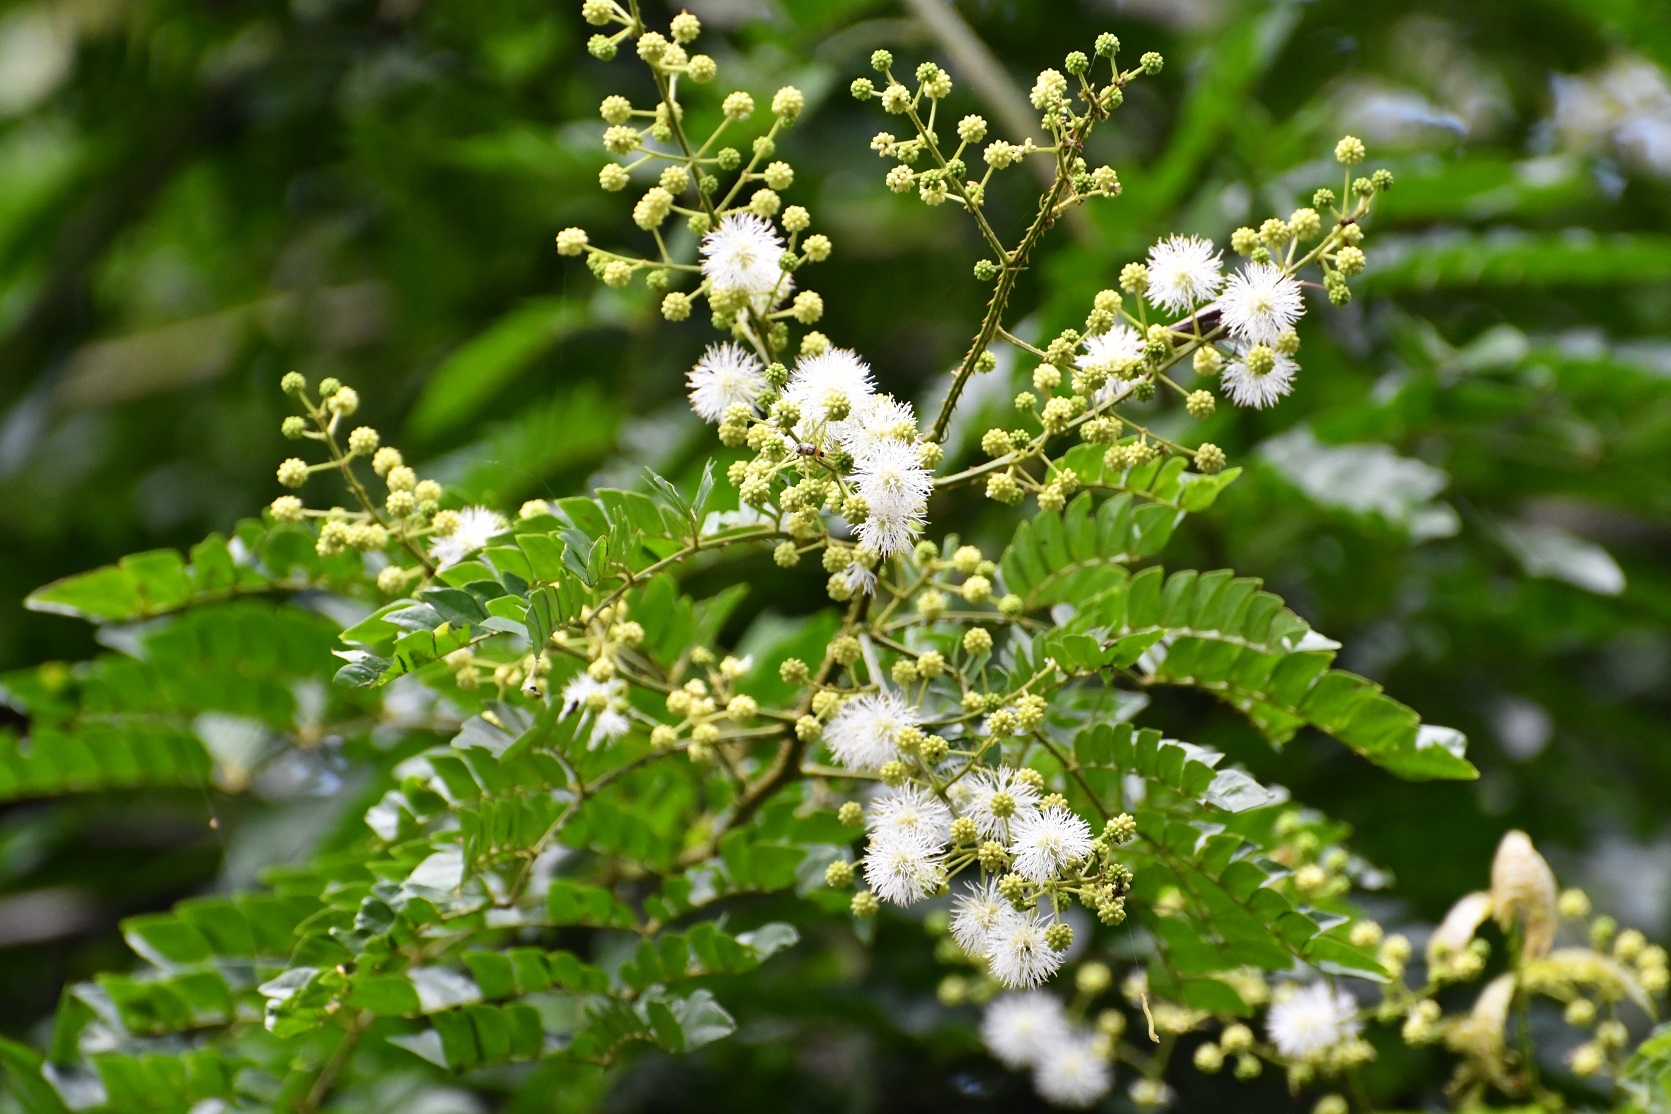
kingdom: Plantae
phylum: Tracheophyta
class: Magnoliopsida
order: Fabales
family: Fabaceae
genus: Mimosa
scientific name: Mimosa ervendbergii
